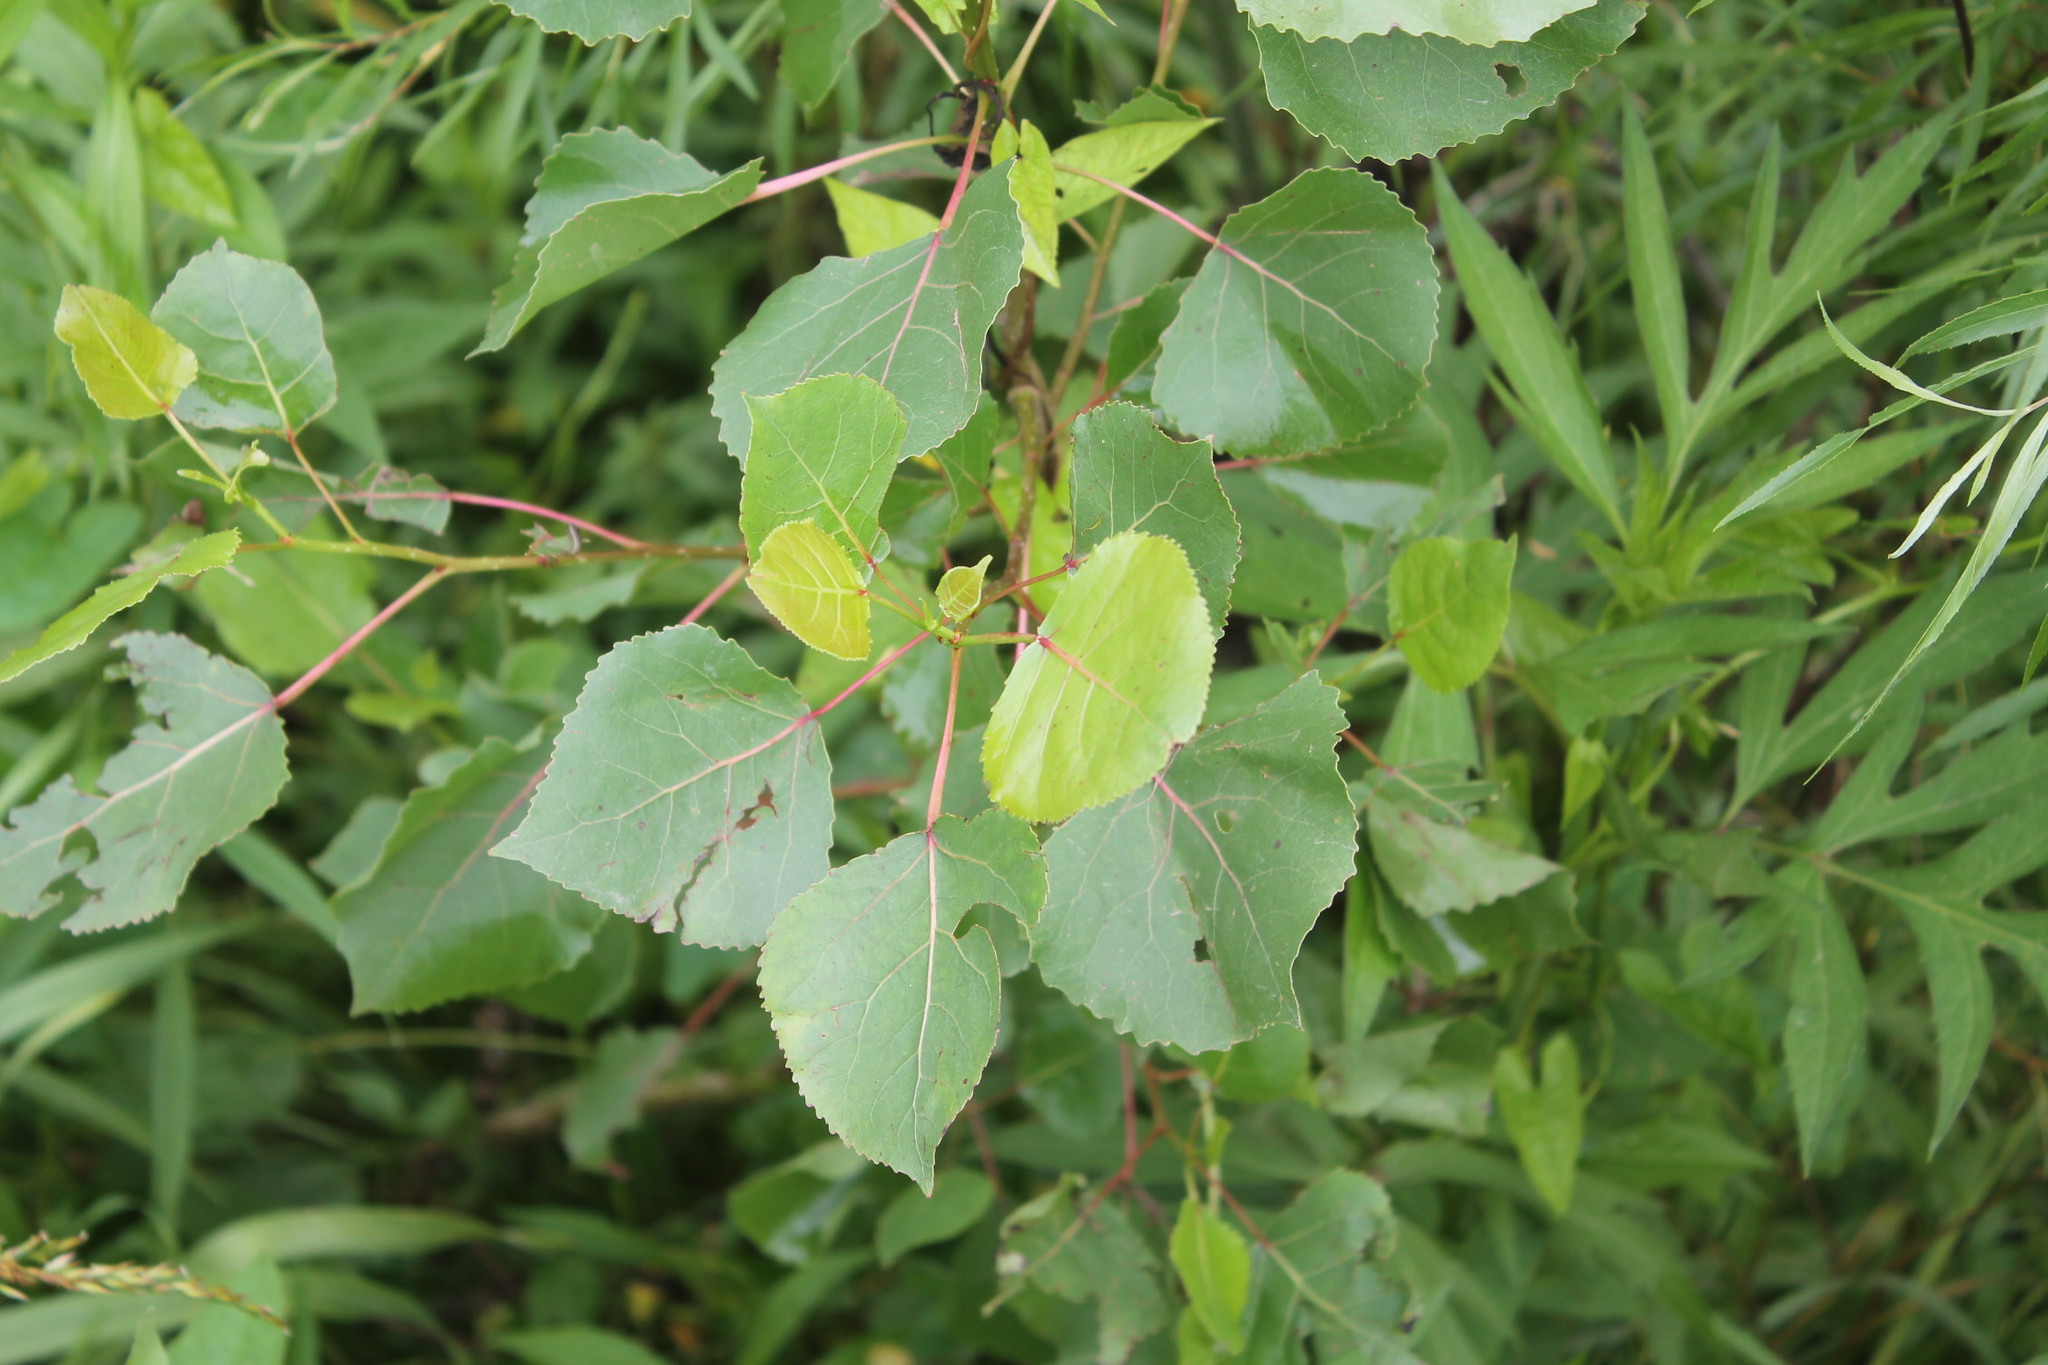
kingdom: Plantae
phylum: Tracheophyta
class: Magnoliopsida
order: Malpighiales
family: Salicaceae
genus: Populus
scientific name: Populus deltoides
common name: Eastern cottonwood
